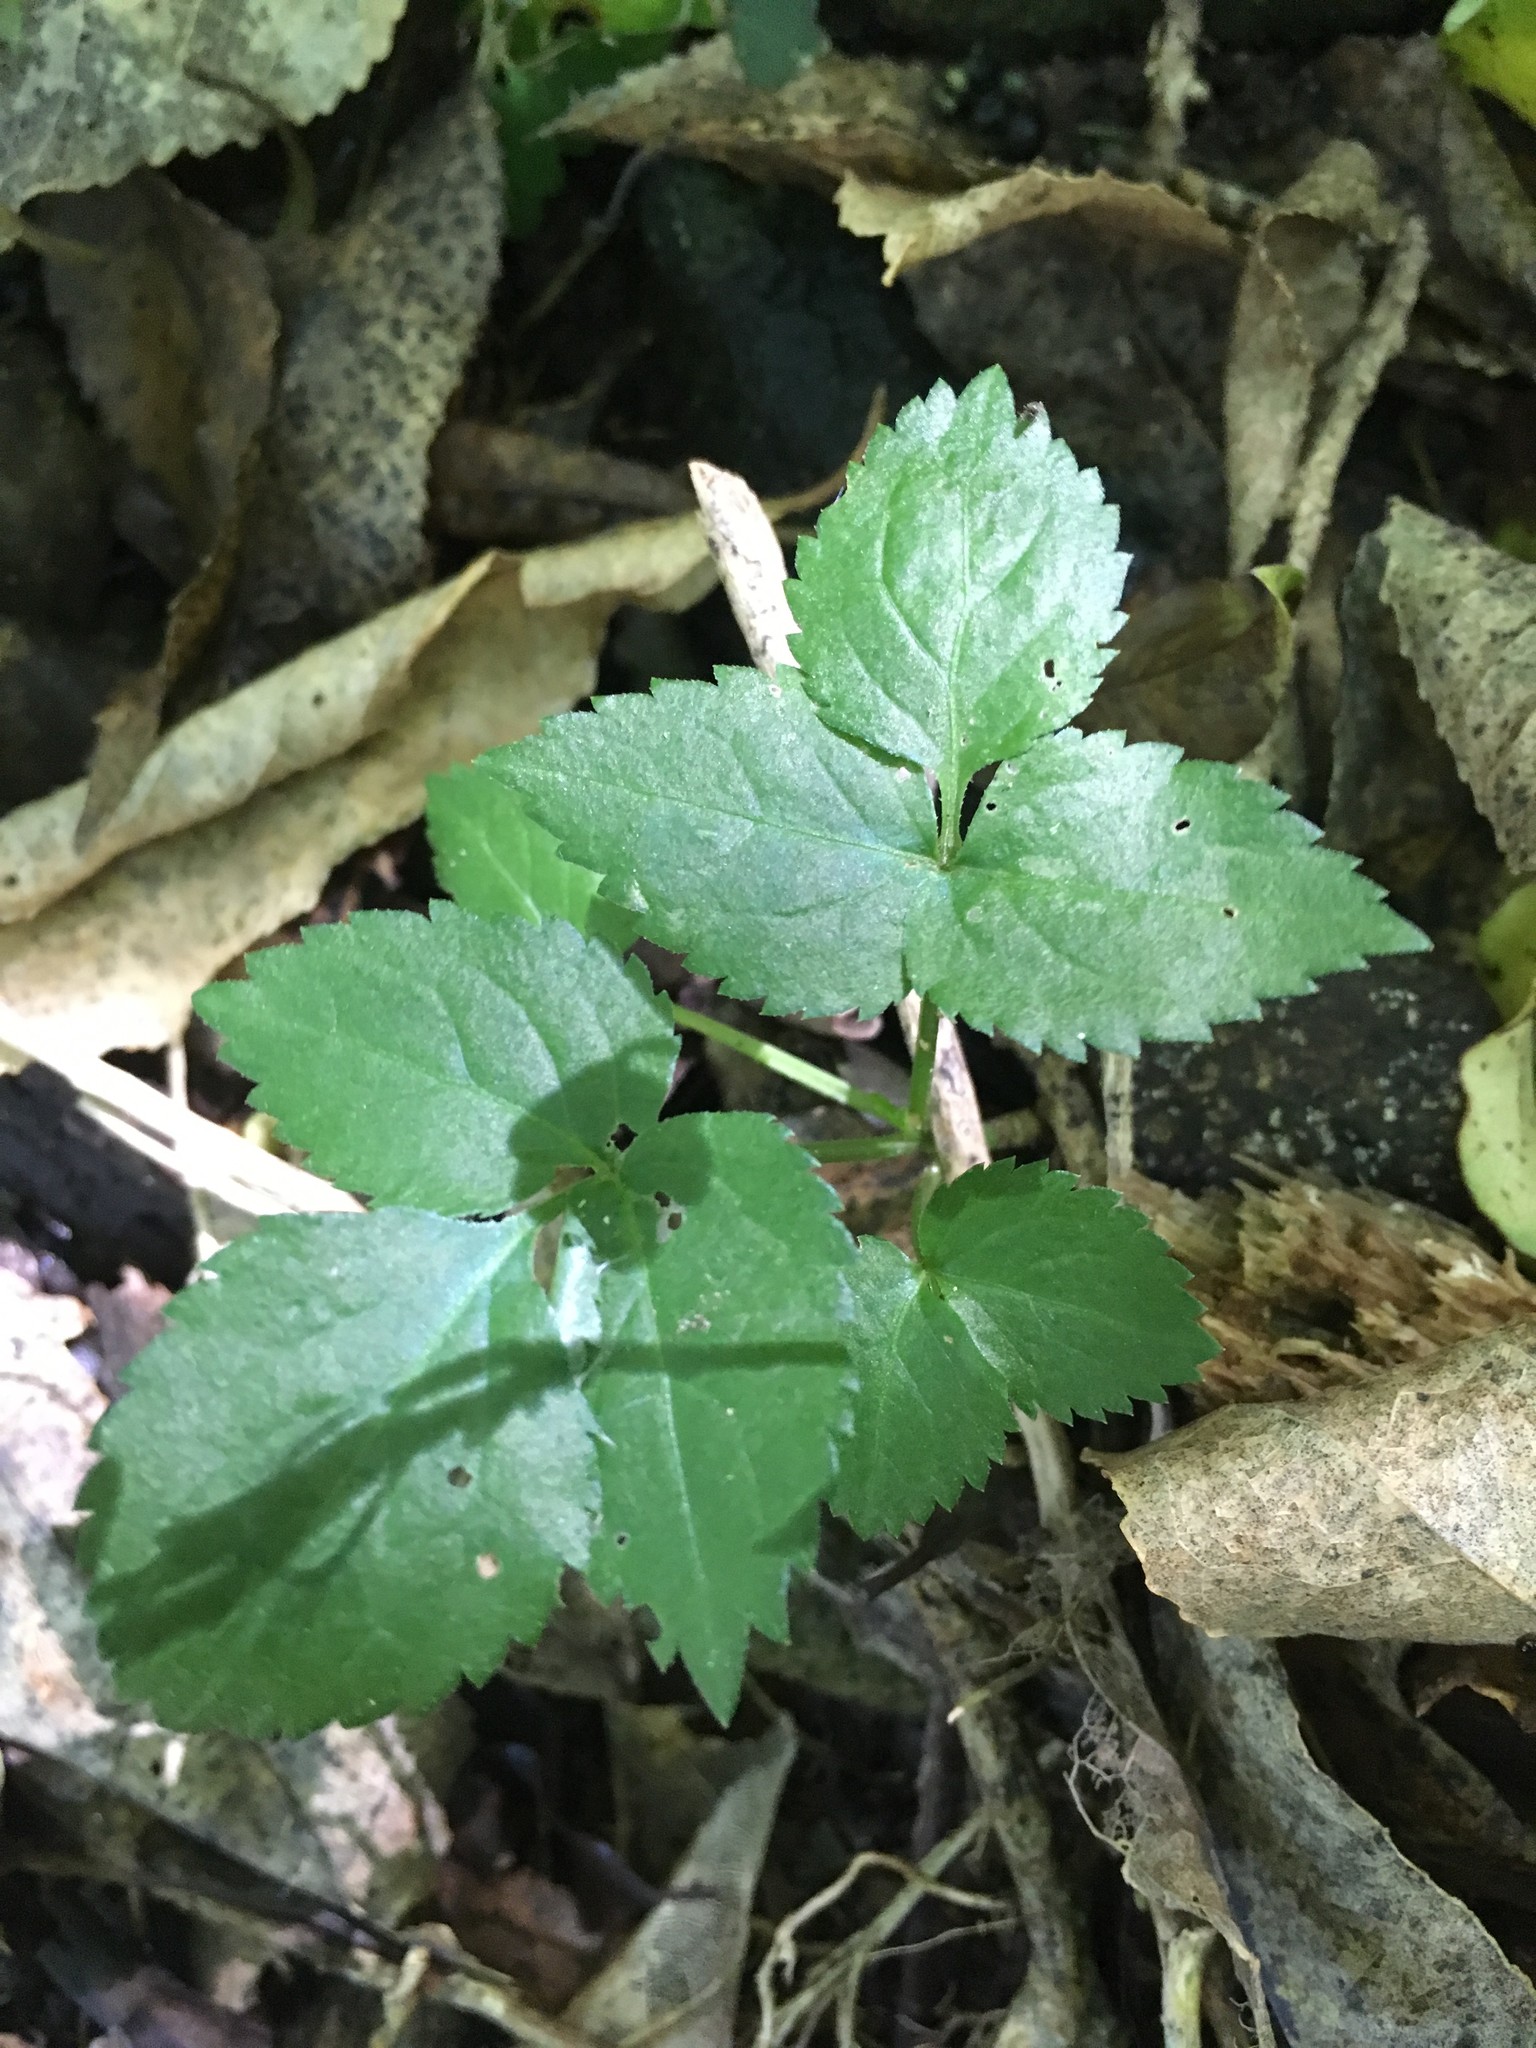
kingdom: Plantae
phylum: Tracheophyta
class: Magnoliopsida
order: Dipsacales
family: Viburnaceae
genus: Sambucus
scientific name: Sambucus nigra
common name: Elder
